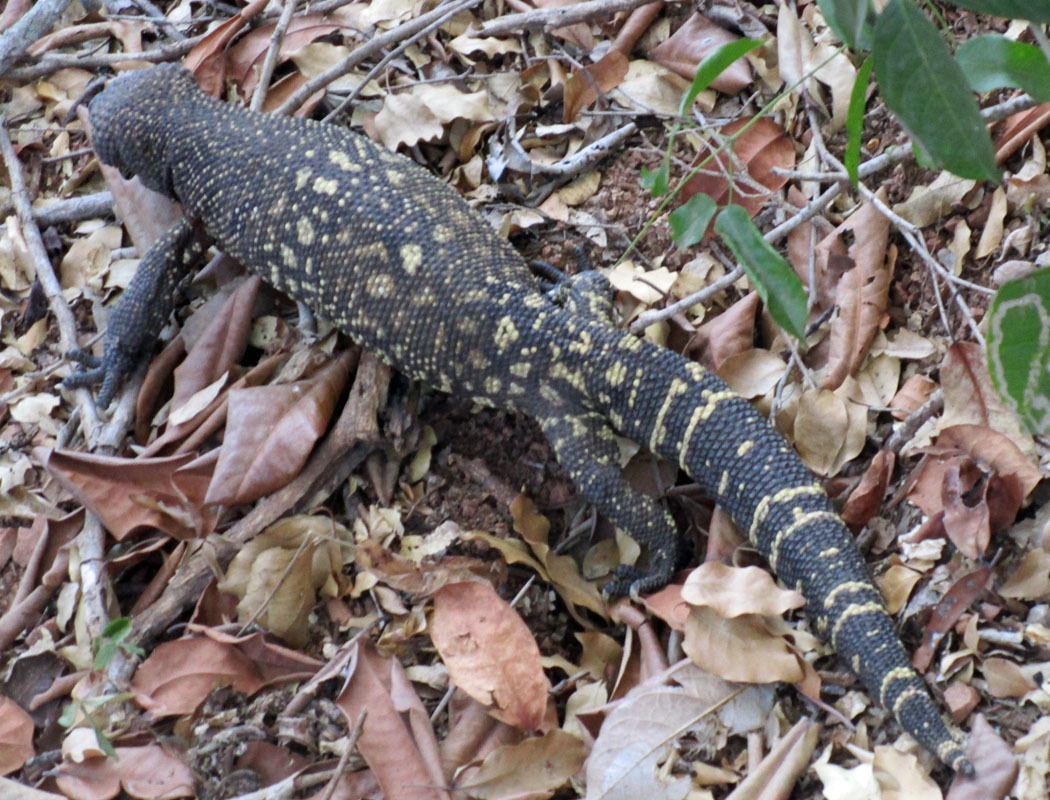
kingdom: Animalia
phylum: Chordata
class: Squamata
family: Helodermatidae
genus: Heloderma
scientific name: Heloderma horridum
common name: Mexican beaded lizard
